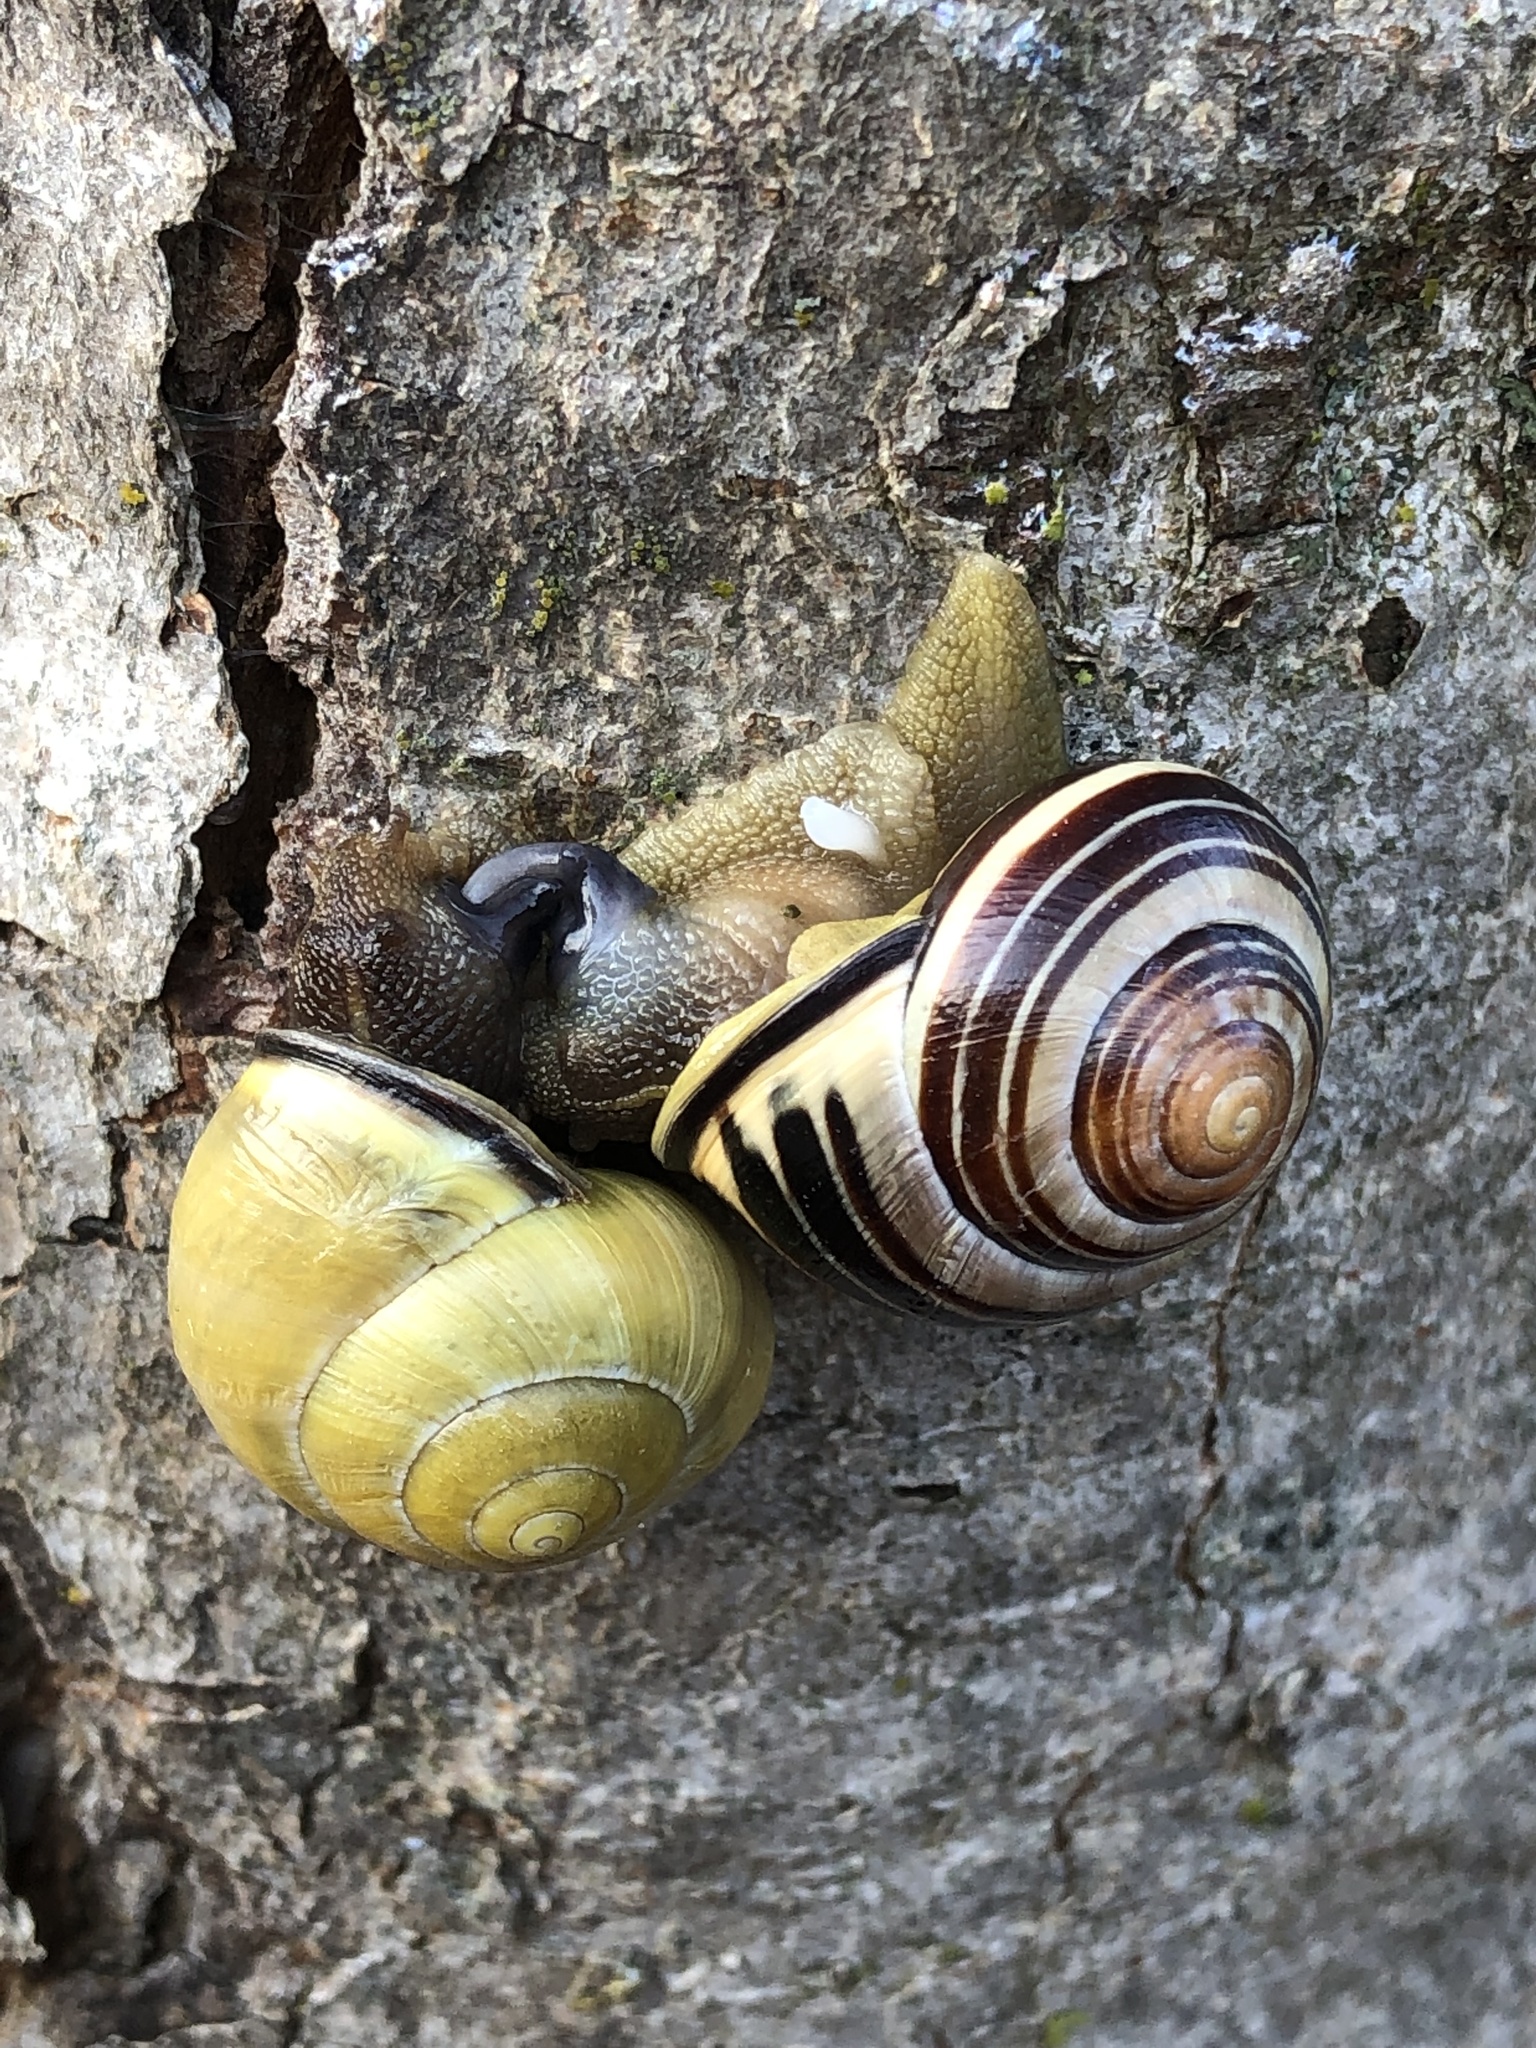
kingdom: Animalia
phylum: Mollusca
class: Gastropoda
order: Stylommatophora
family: Helicidae
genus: Cepaea
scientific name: Cepaea nemoralis
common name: Grovesnail
